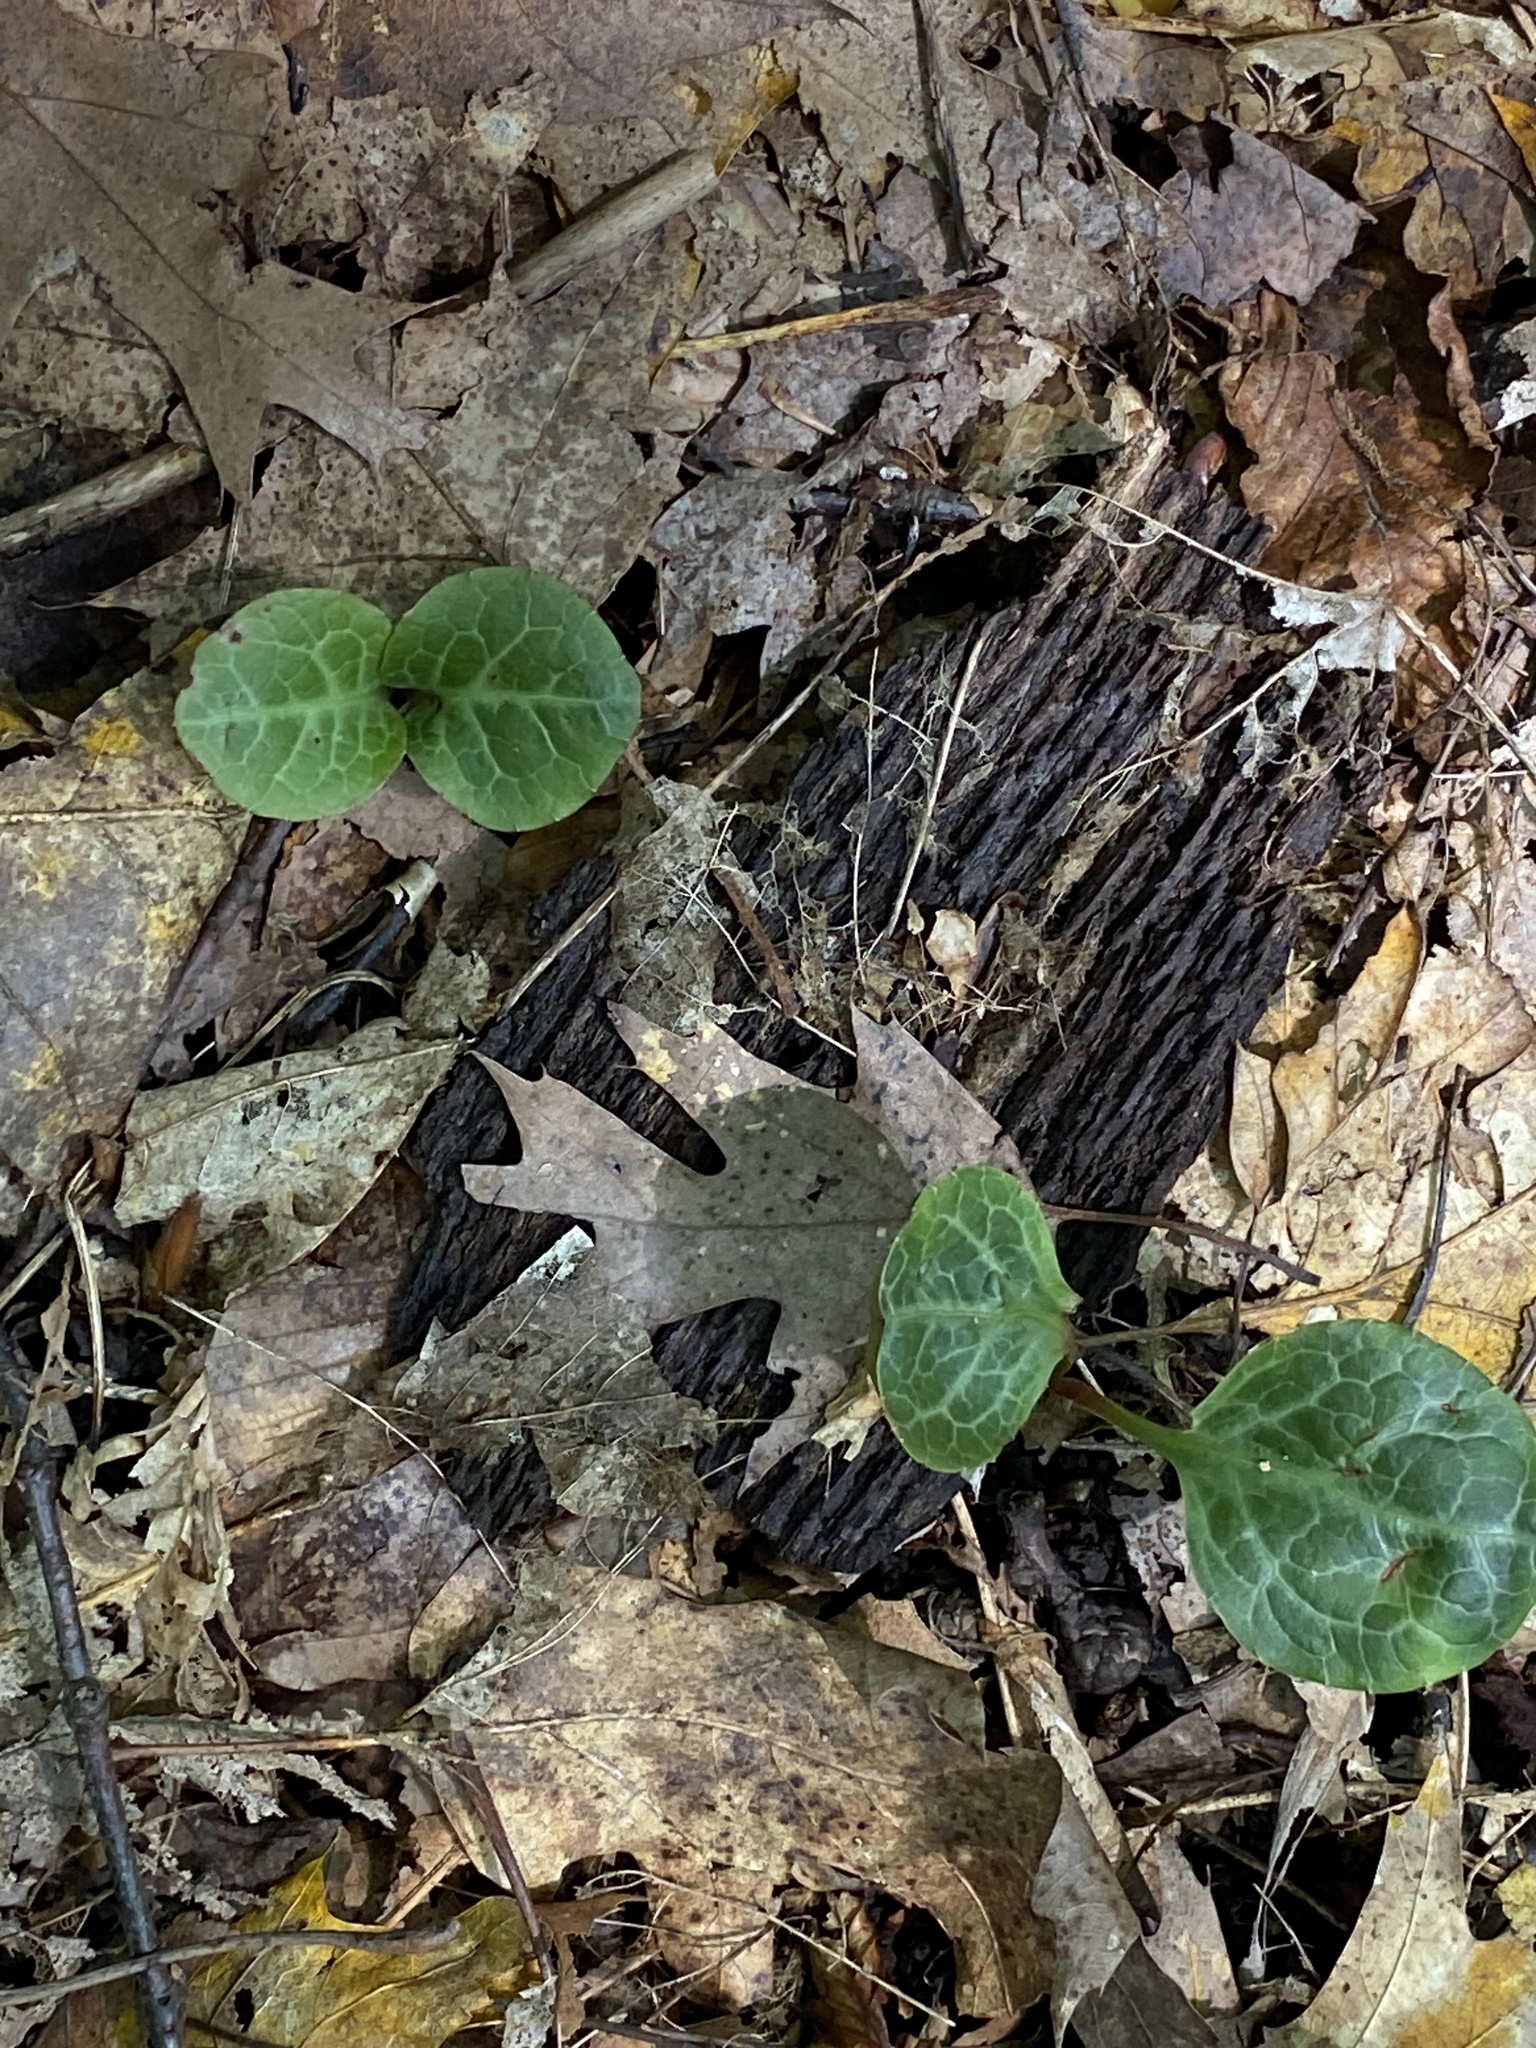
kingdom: Plantae
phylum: Tracheophyta
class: Magnoliopsida
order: Ericales
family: Ericaceae
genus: Pyrola
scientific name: Pyrola americana
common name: American wintergreen
